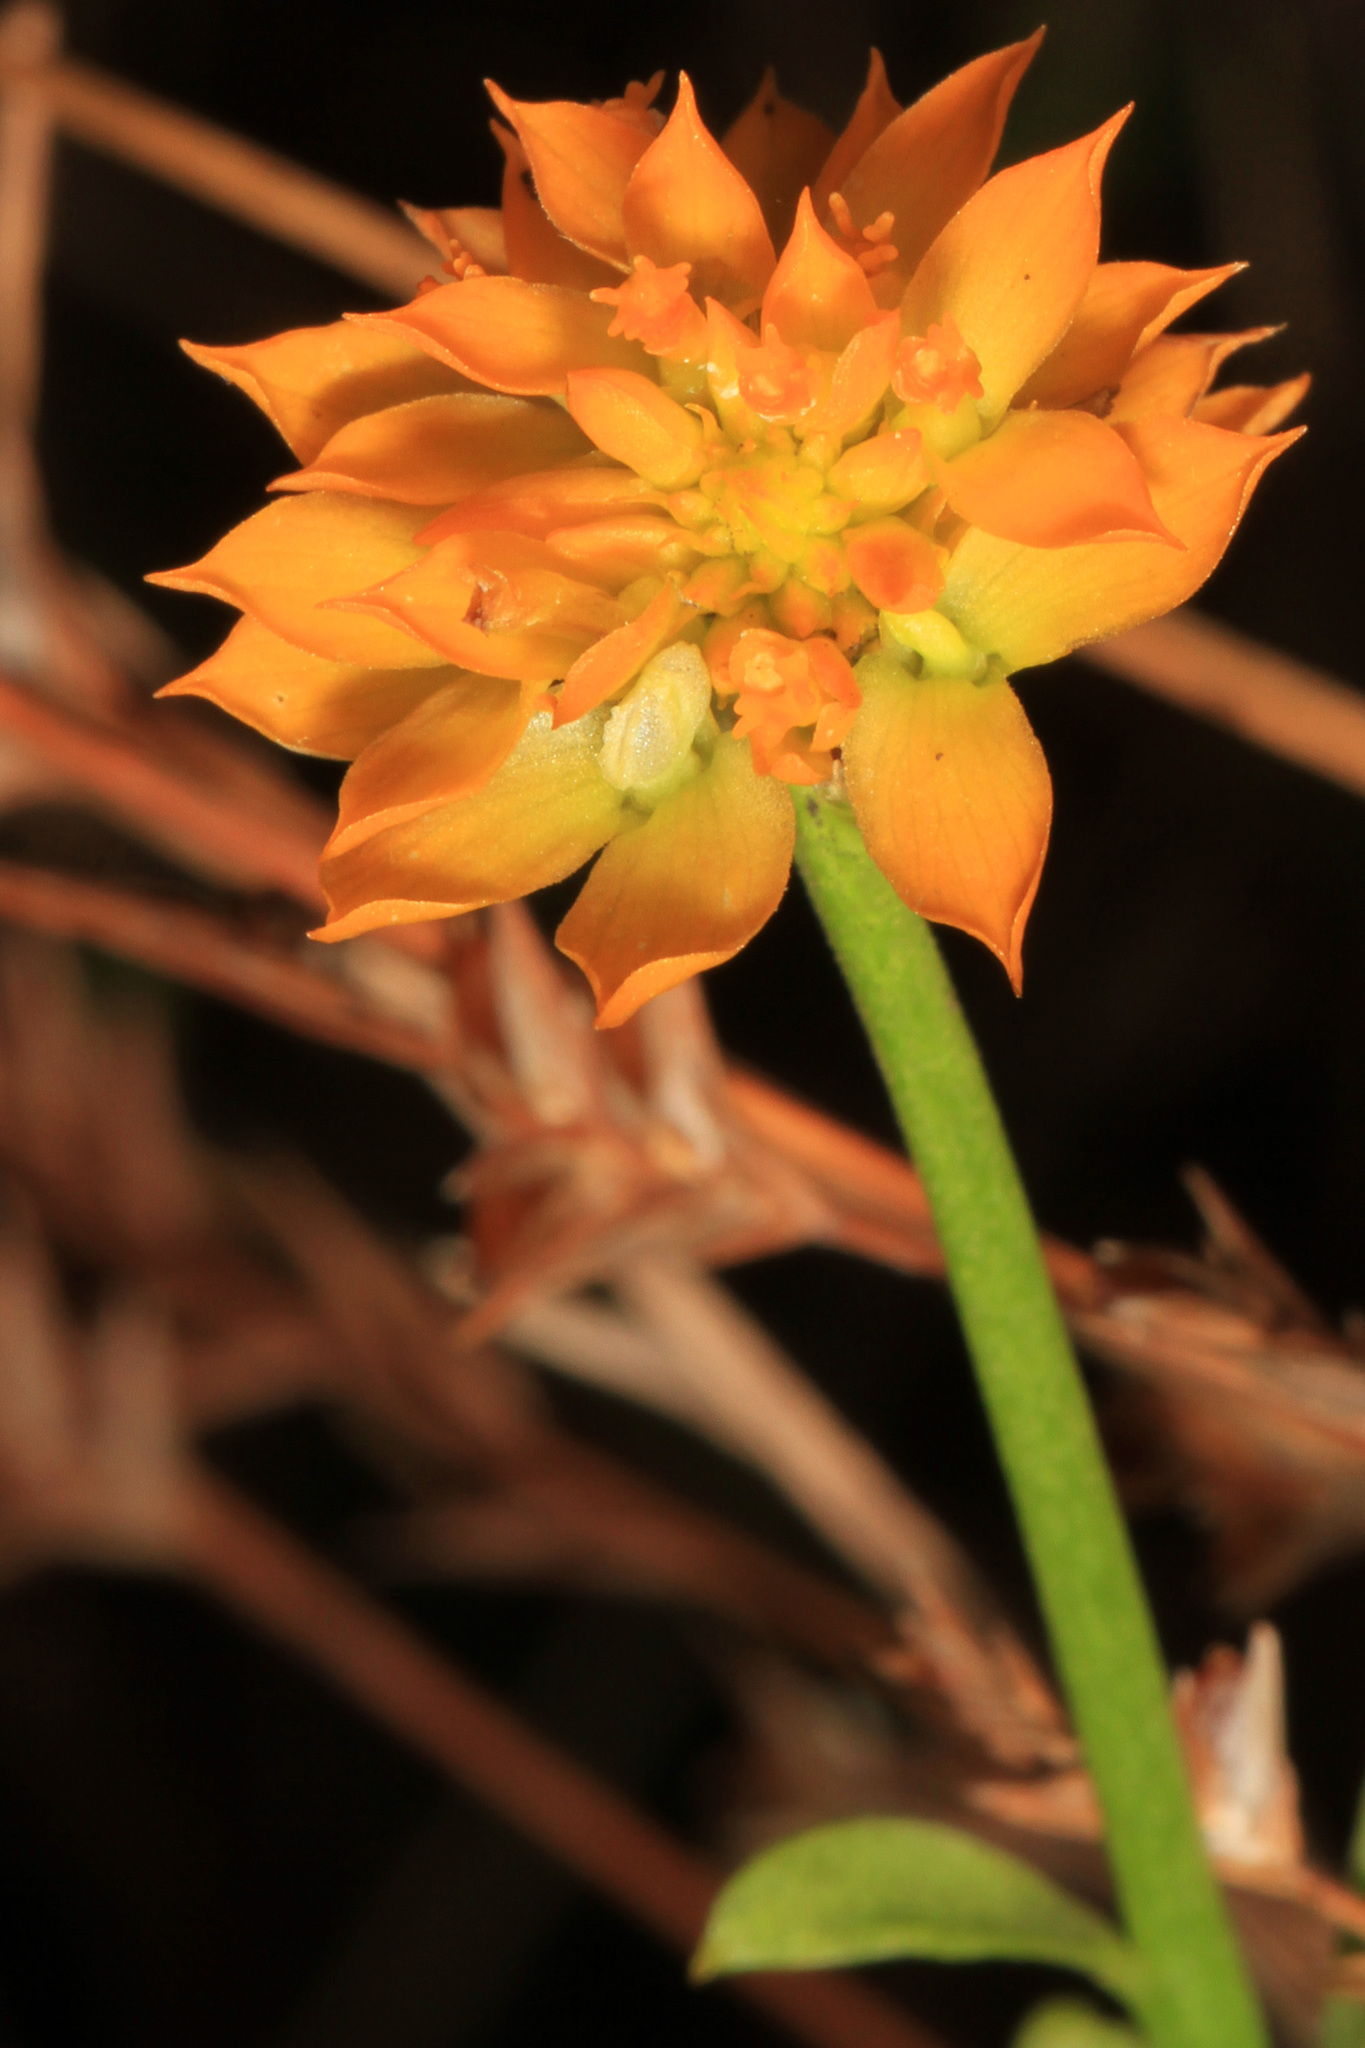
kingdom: Plantae
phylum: Tracheophyta
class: Magnoliopsida
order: Fabales
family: Polygalaceae
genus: Polygala
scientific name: Polygala lutea
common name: Orange milkwort
